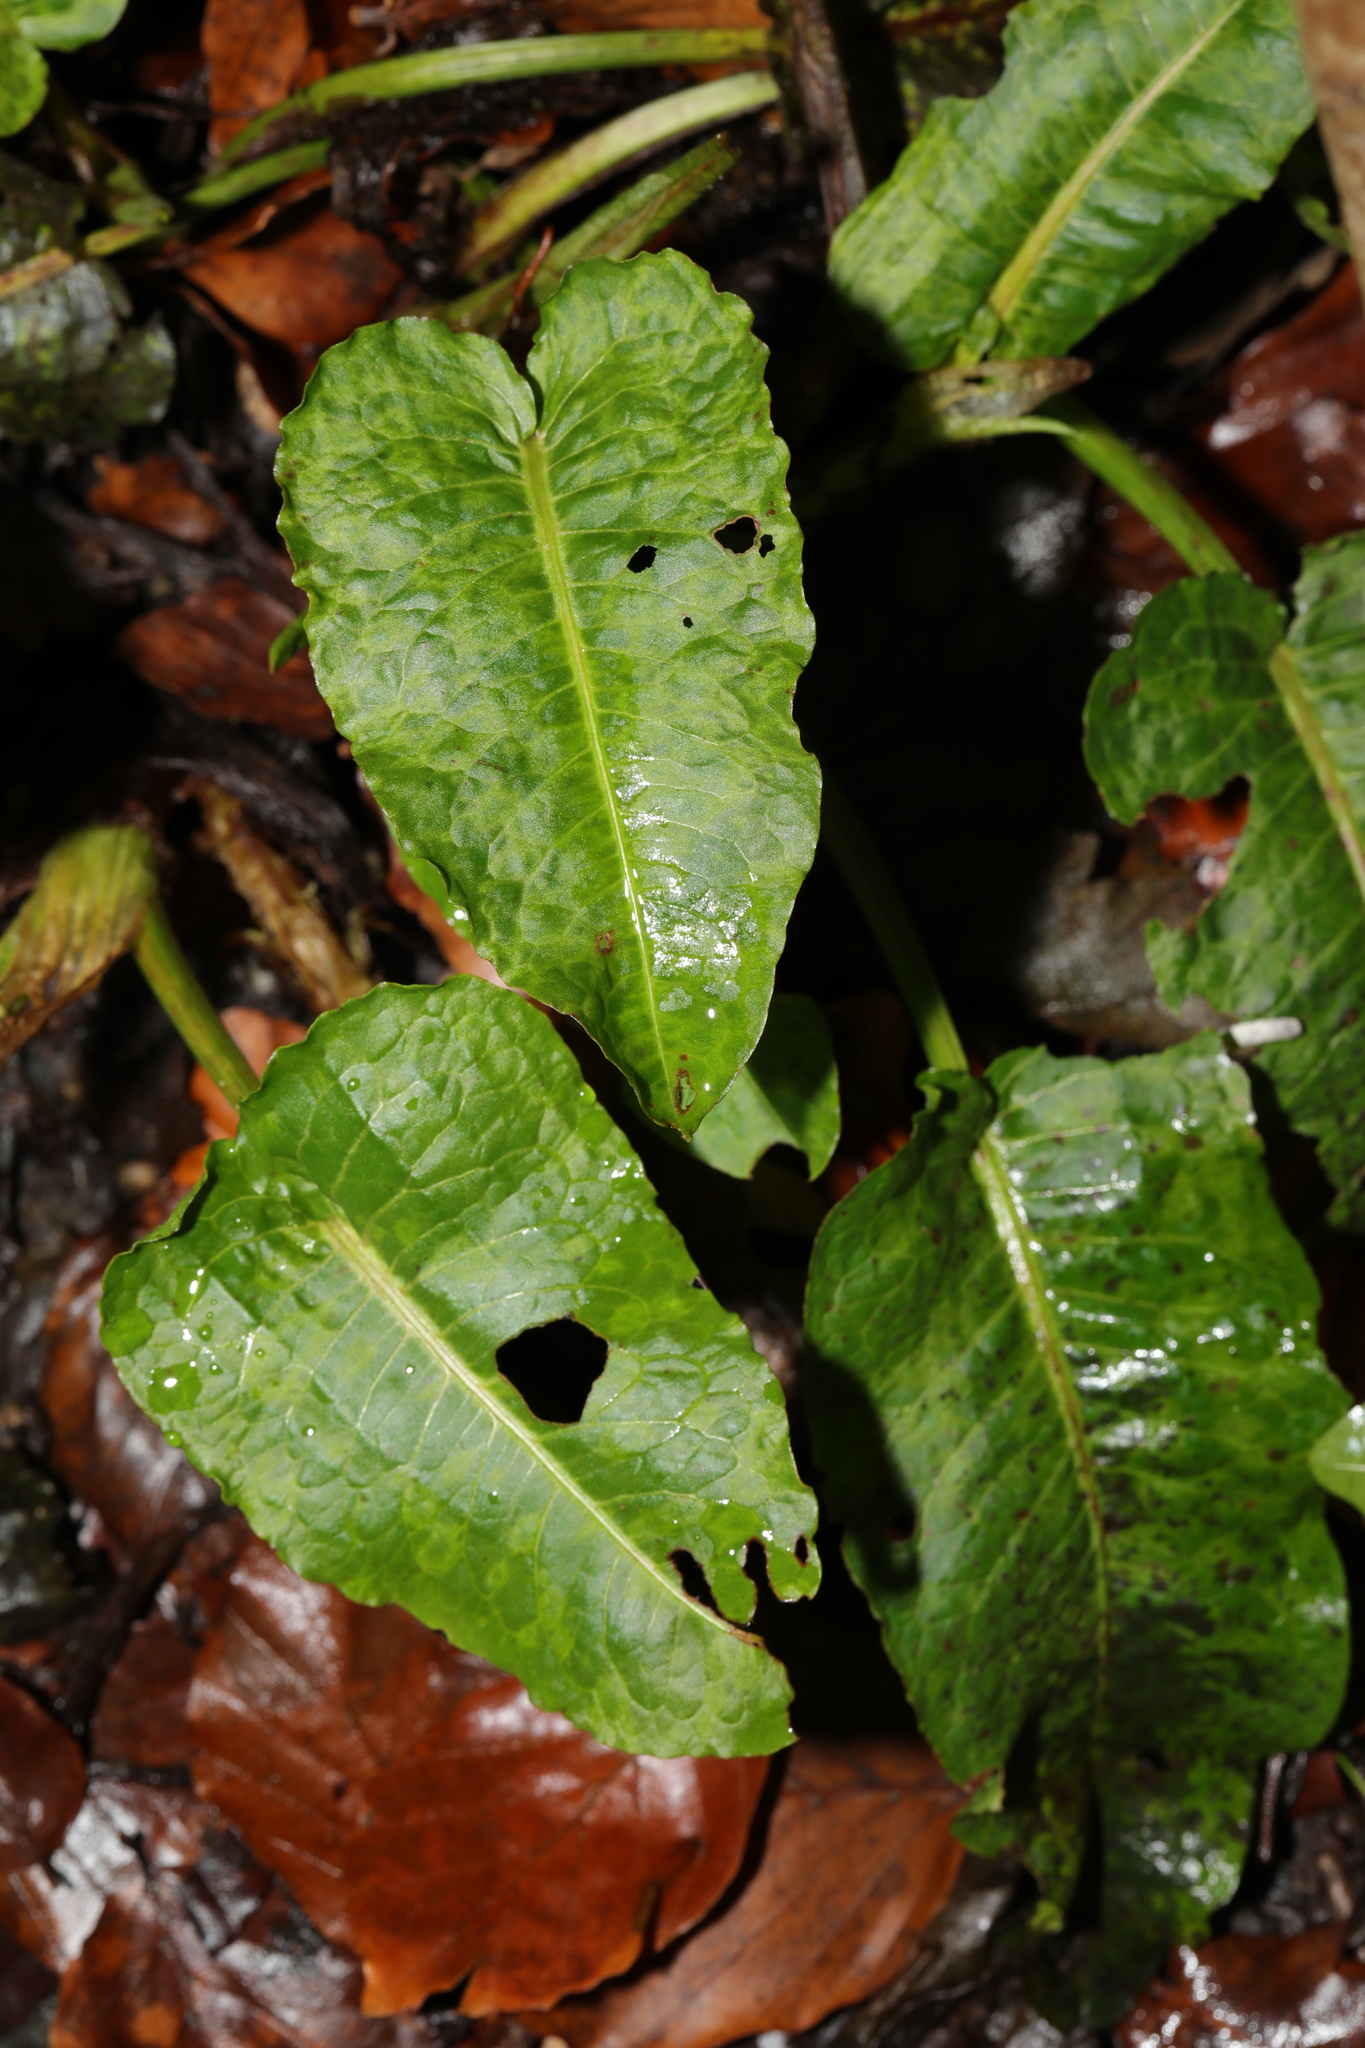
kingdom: Plantae
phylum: Tracheophyta
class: Magnoliopsida
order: Caryophyllales
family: Polygonaceae
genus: Rumex
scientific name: Rumex obtusifolius
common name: Bitter dock
